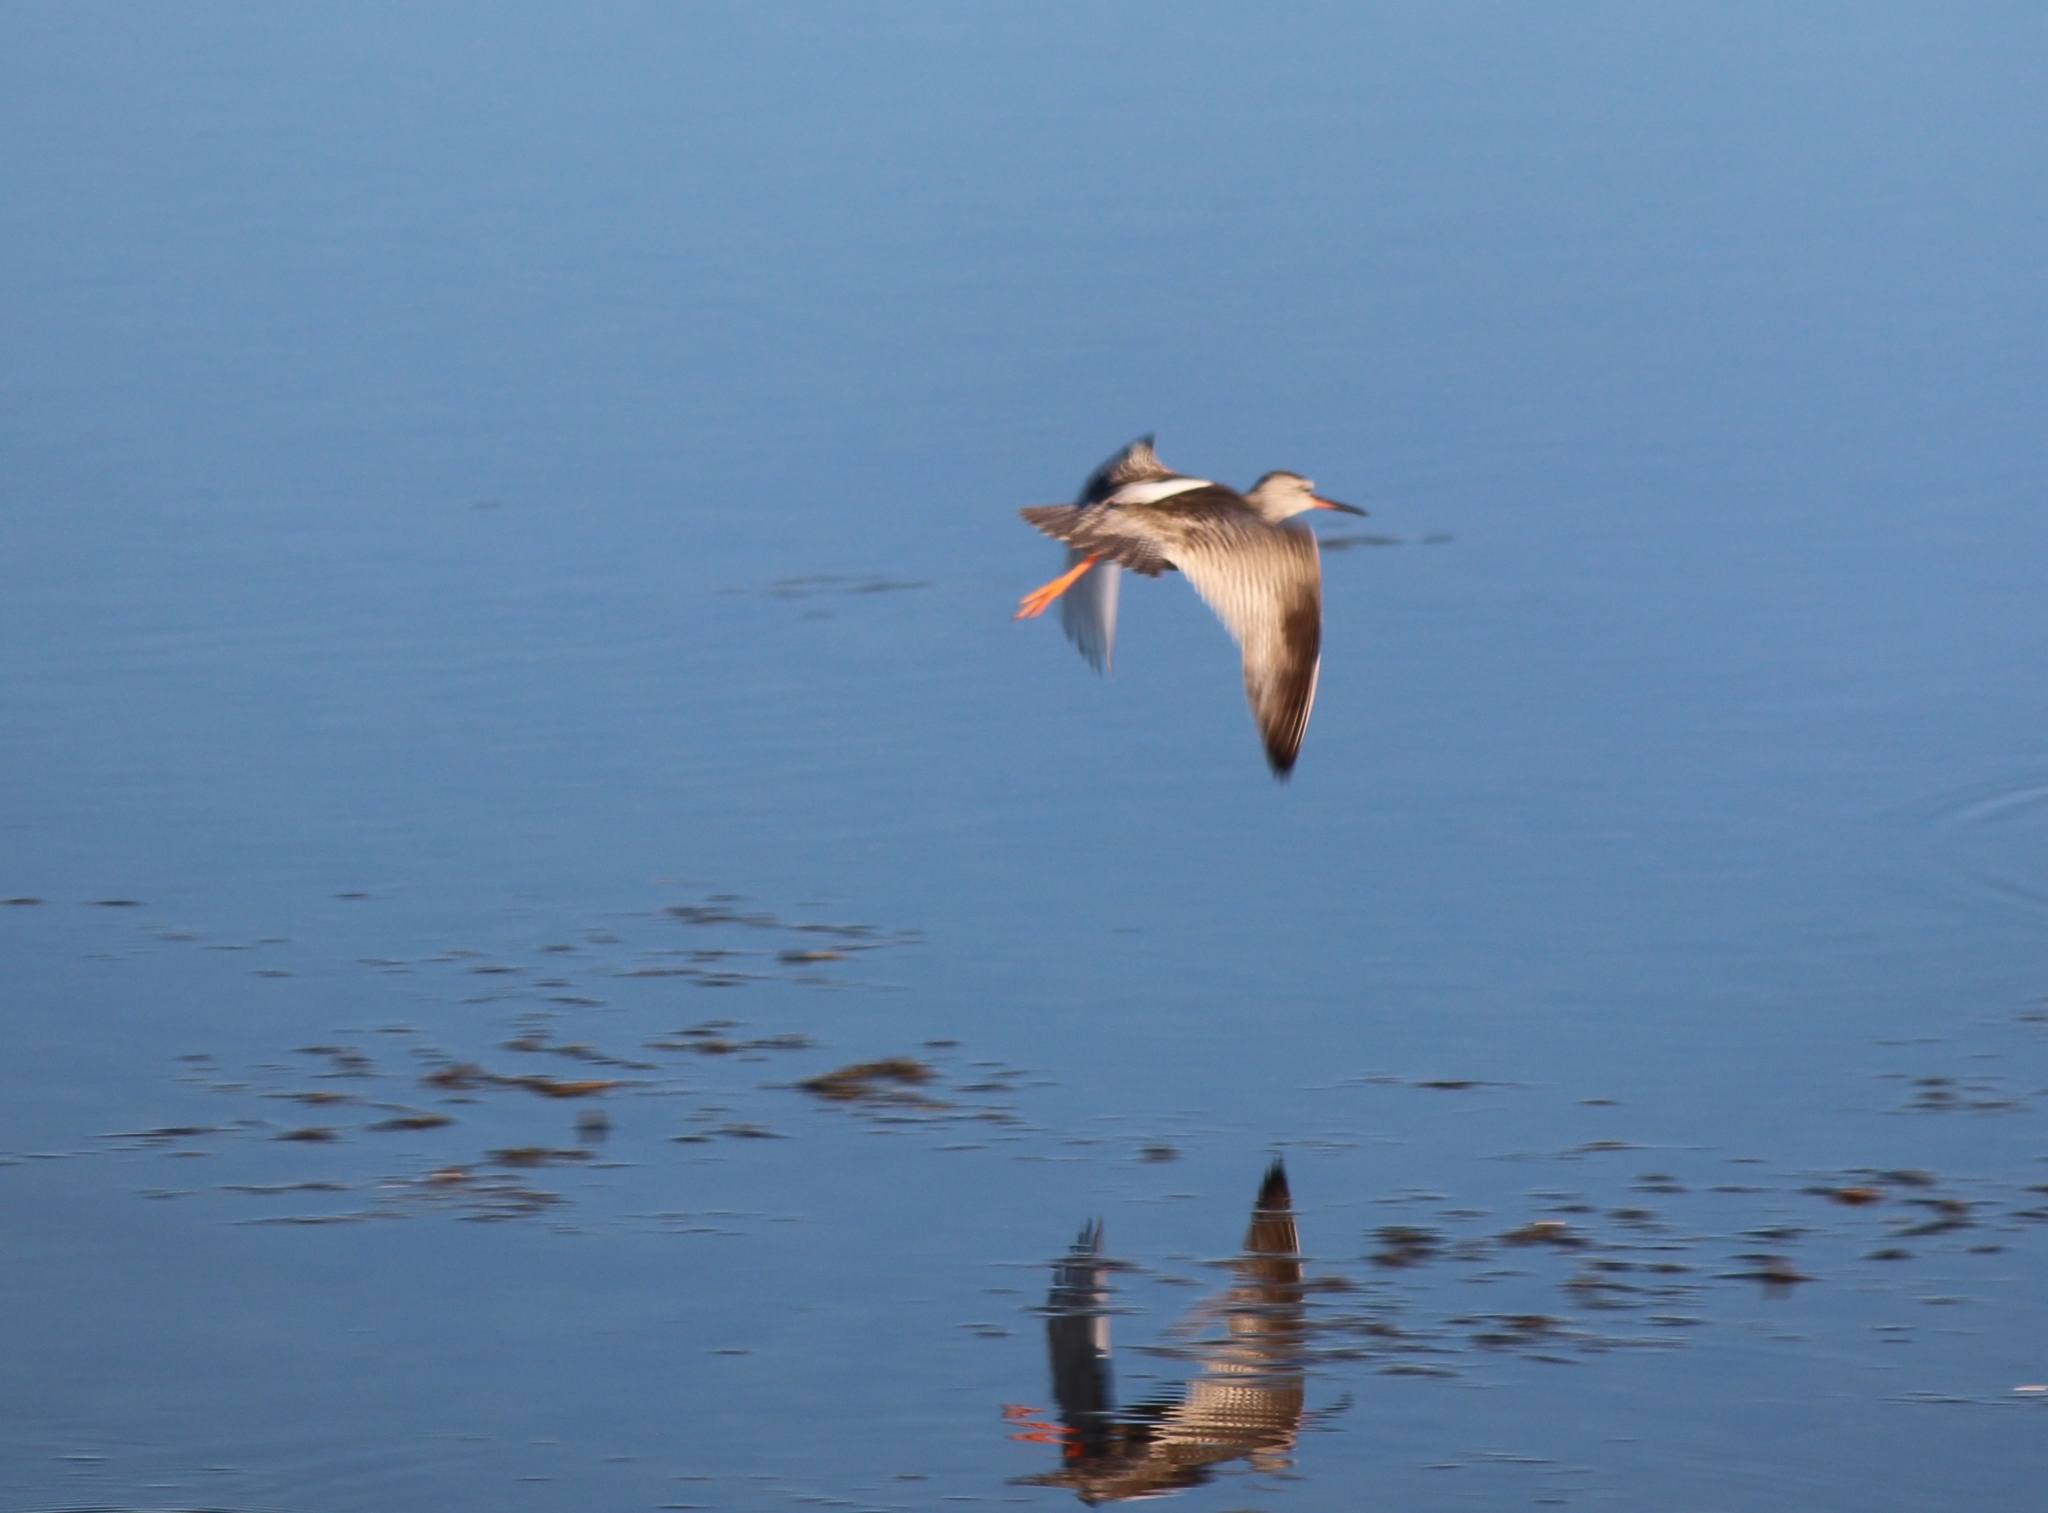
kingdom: Animalia
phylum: Chordata
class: Aves
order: Charadriiformes
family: Scolopacidae
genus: Tringa
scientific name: Tringa erythropus
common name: Spotted redshank
